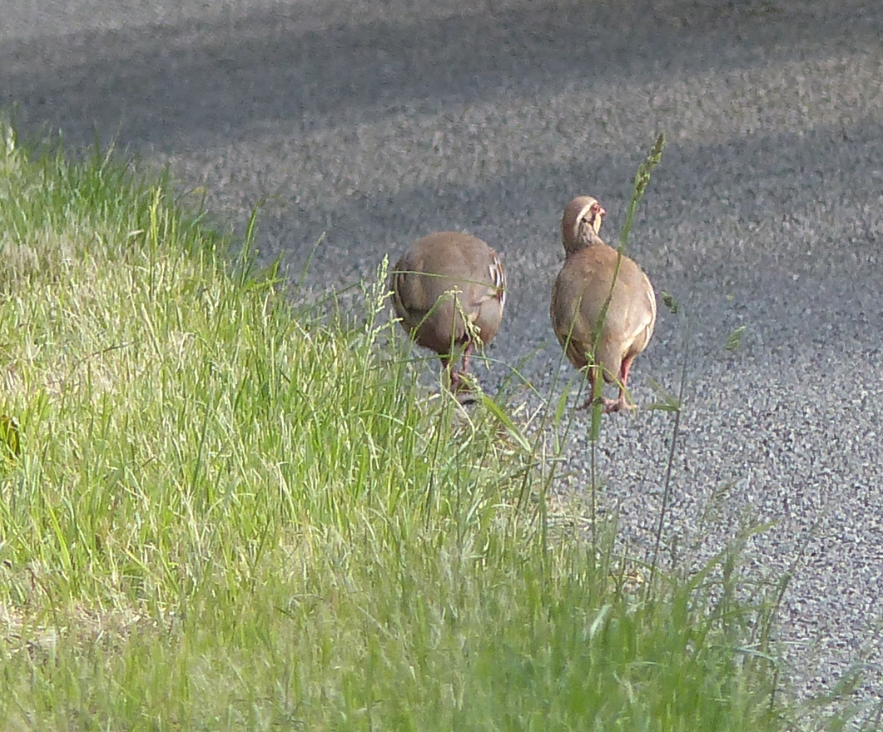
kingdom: Animalia
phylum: Chordata
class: Aves
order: Galliformes
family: Phasianidae
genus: Alectoris
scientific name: Alectoris rufa
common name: Red-legged partridge
